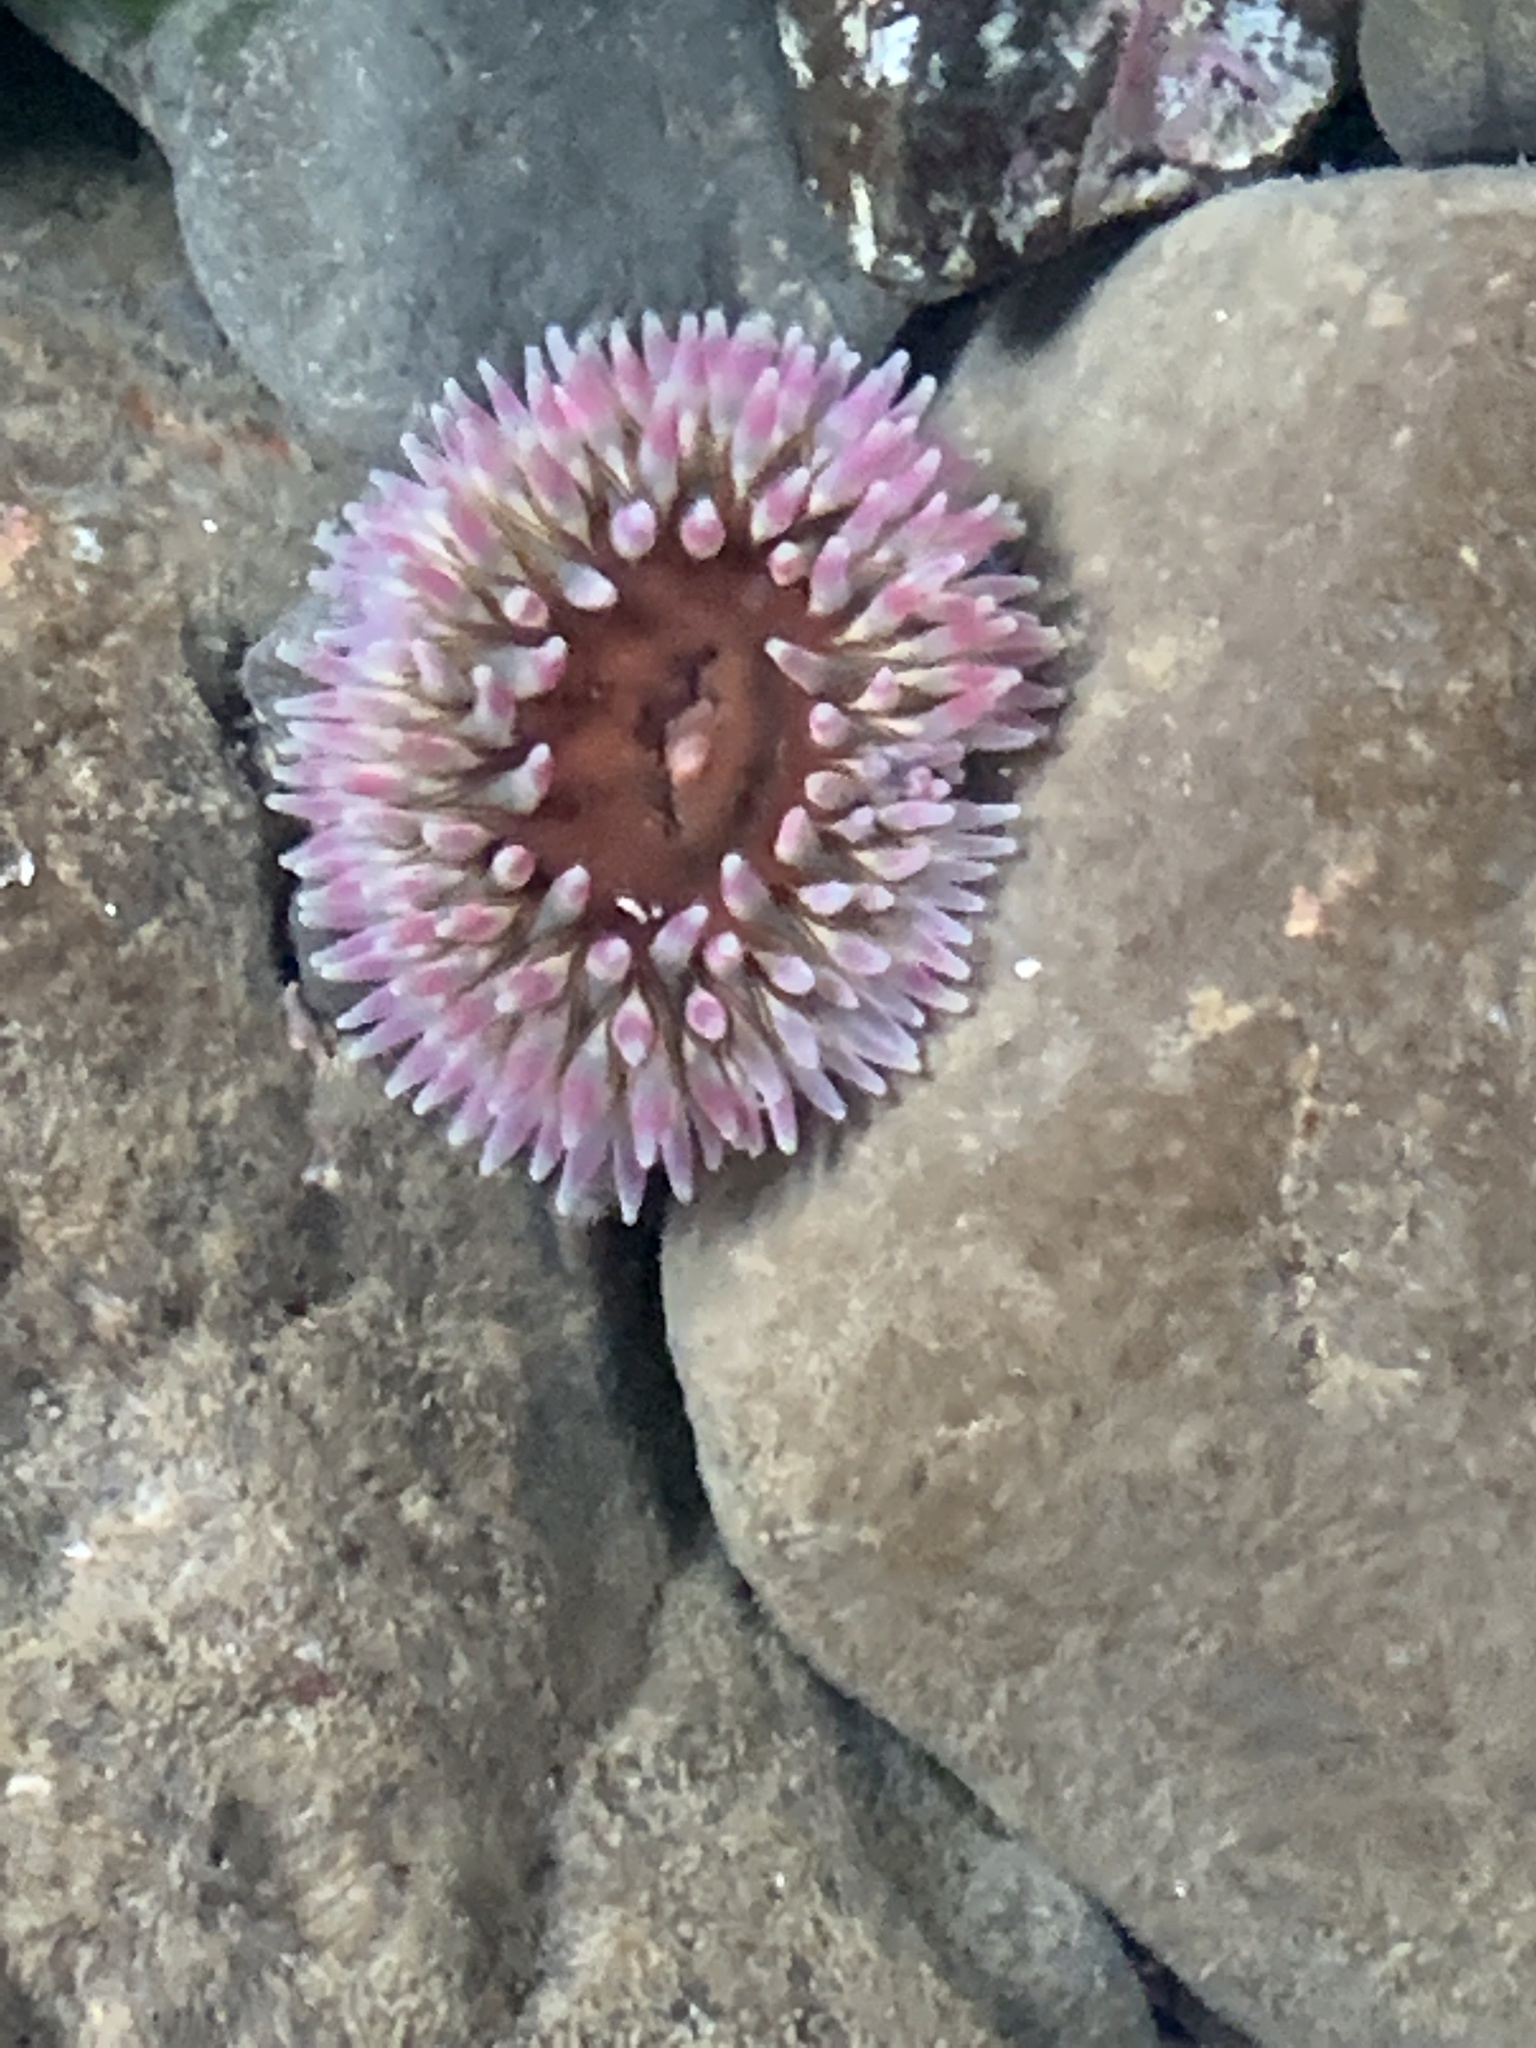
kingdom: Animalia
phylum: Cnidaria
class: Anthozoa
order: Actiniaria
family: Actiniidae
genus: Urticina
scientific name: Urticina clandestina
